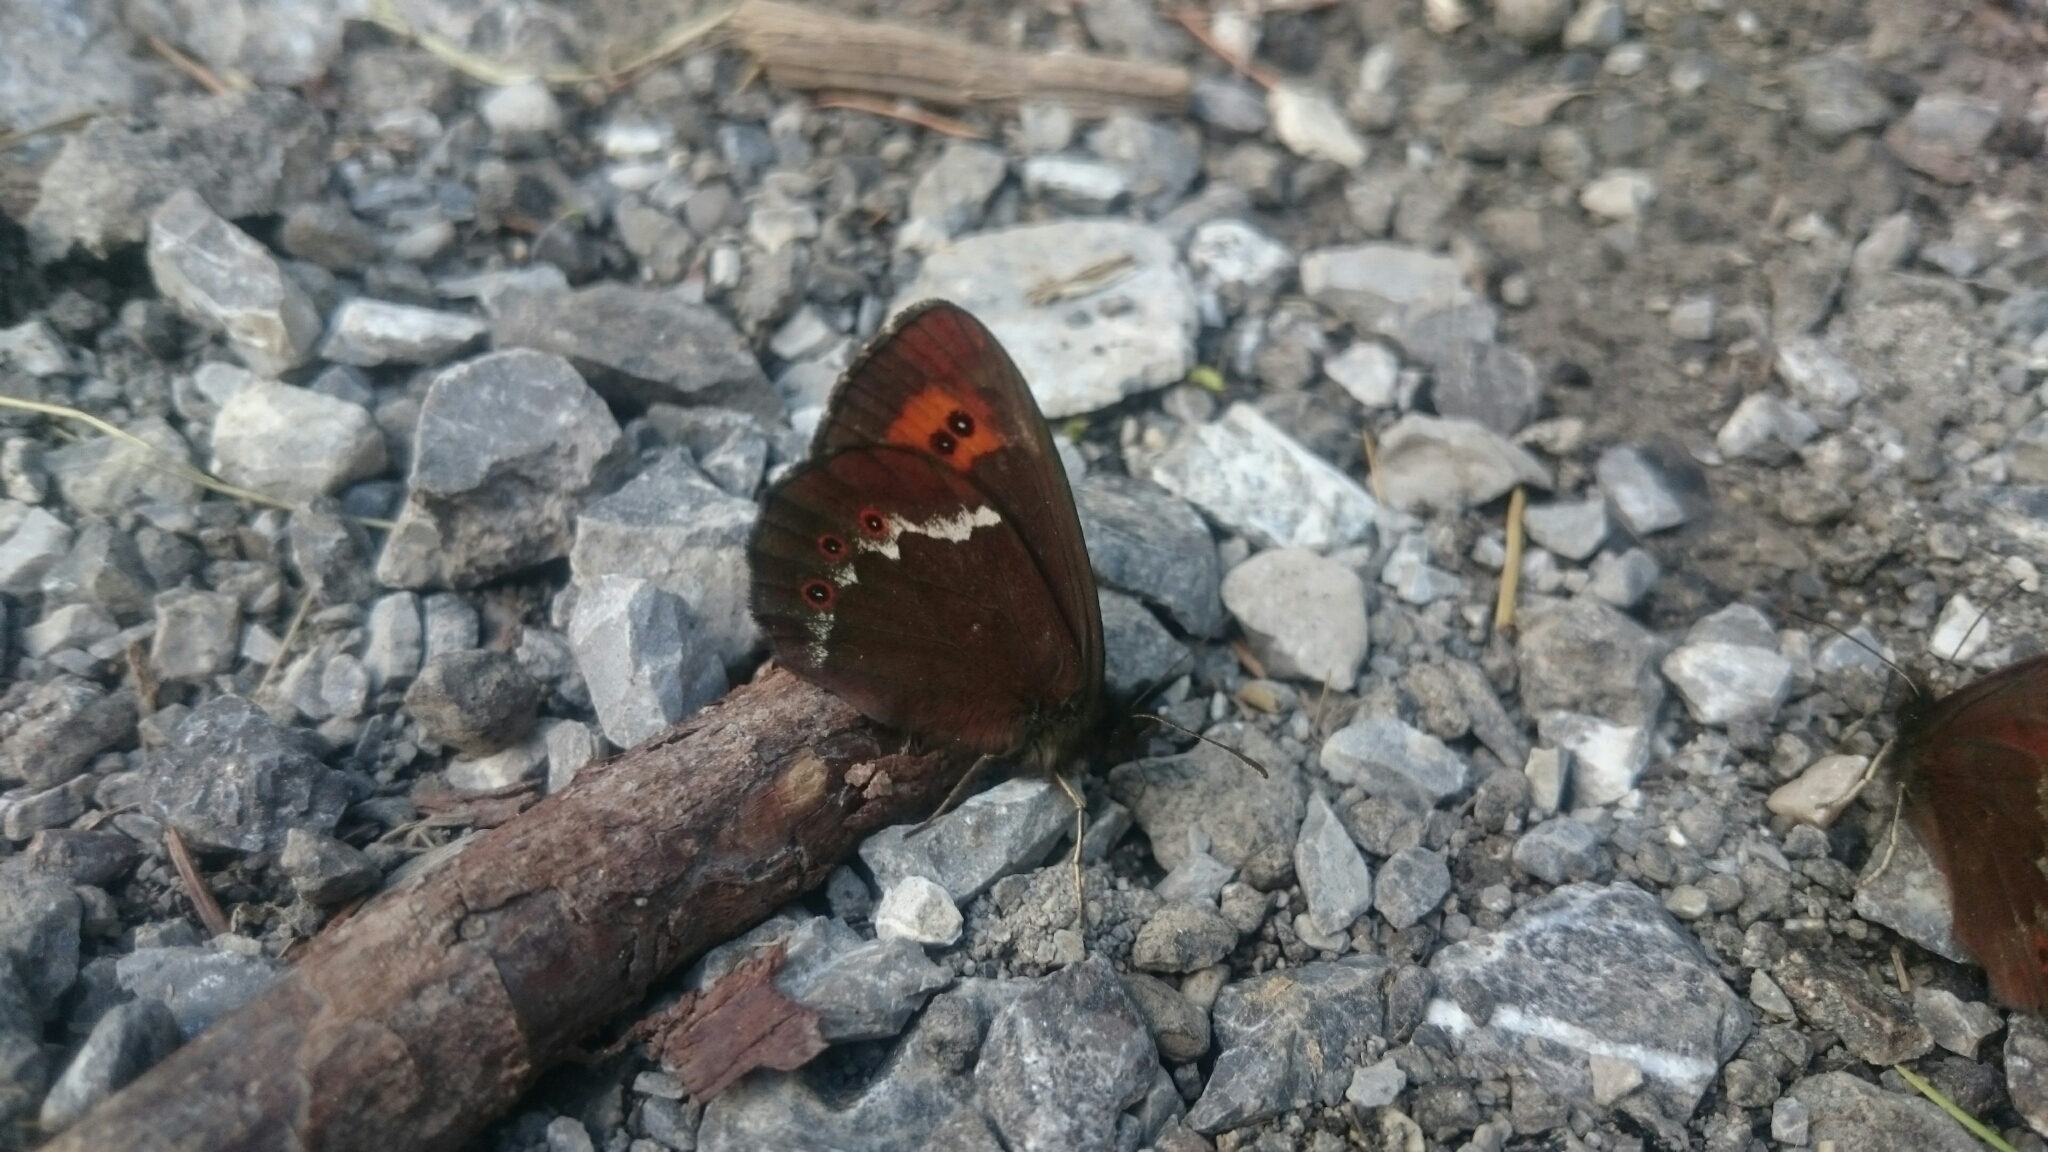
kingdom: Animalia
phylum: Arthropoda
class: Insecta
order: Lepidoptera
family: Nymphalidae
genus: Erebia
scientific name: Erebia ligea
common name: Arran brown
